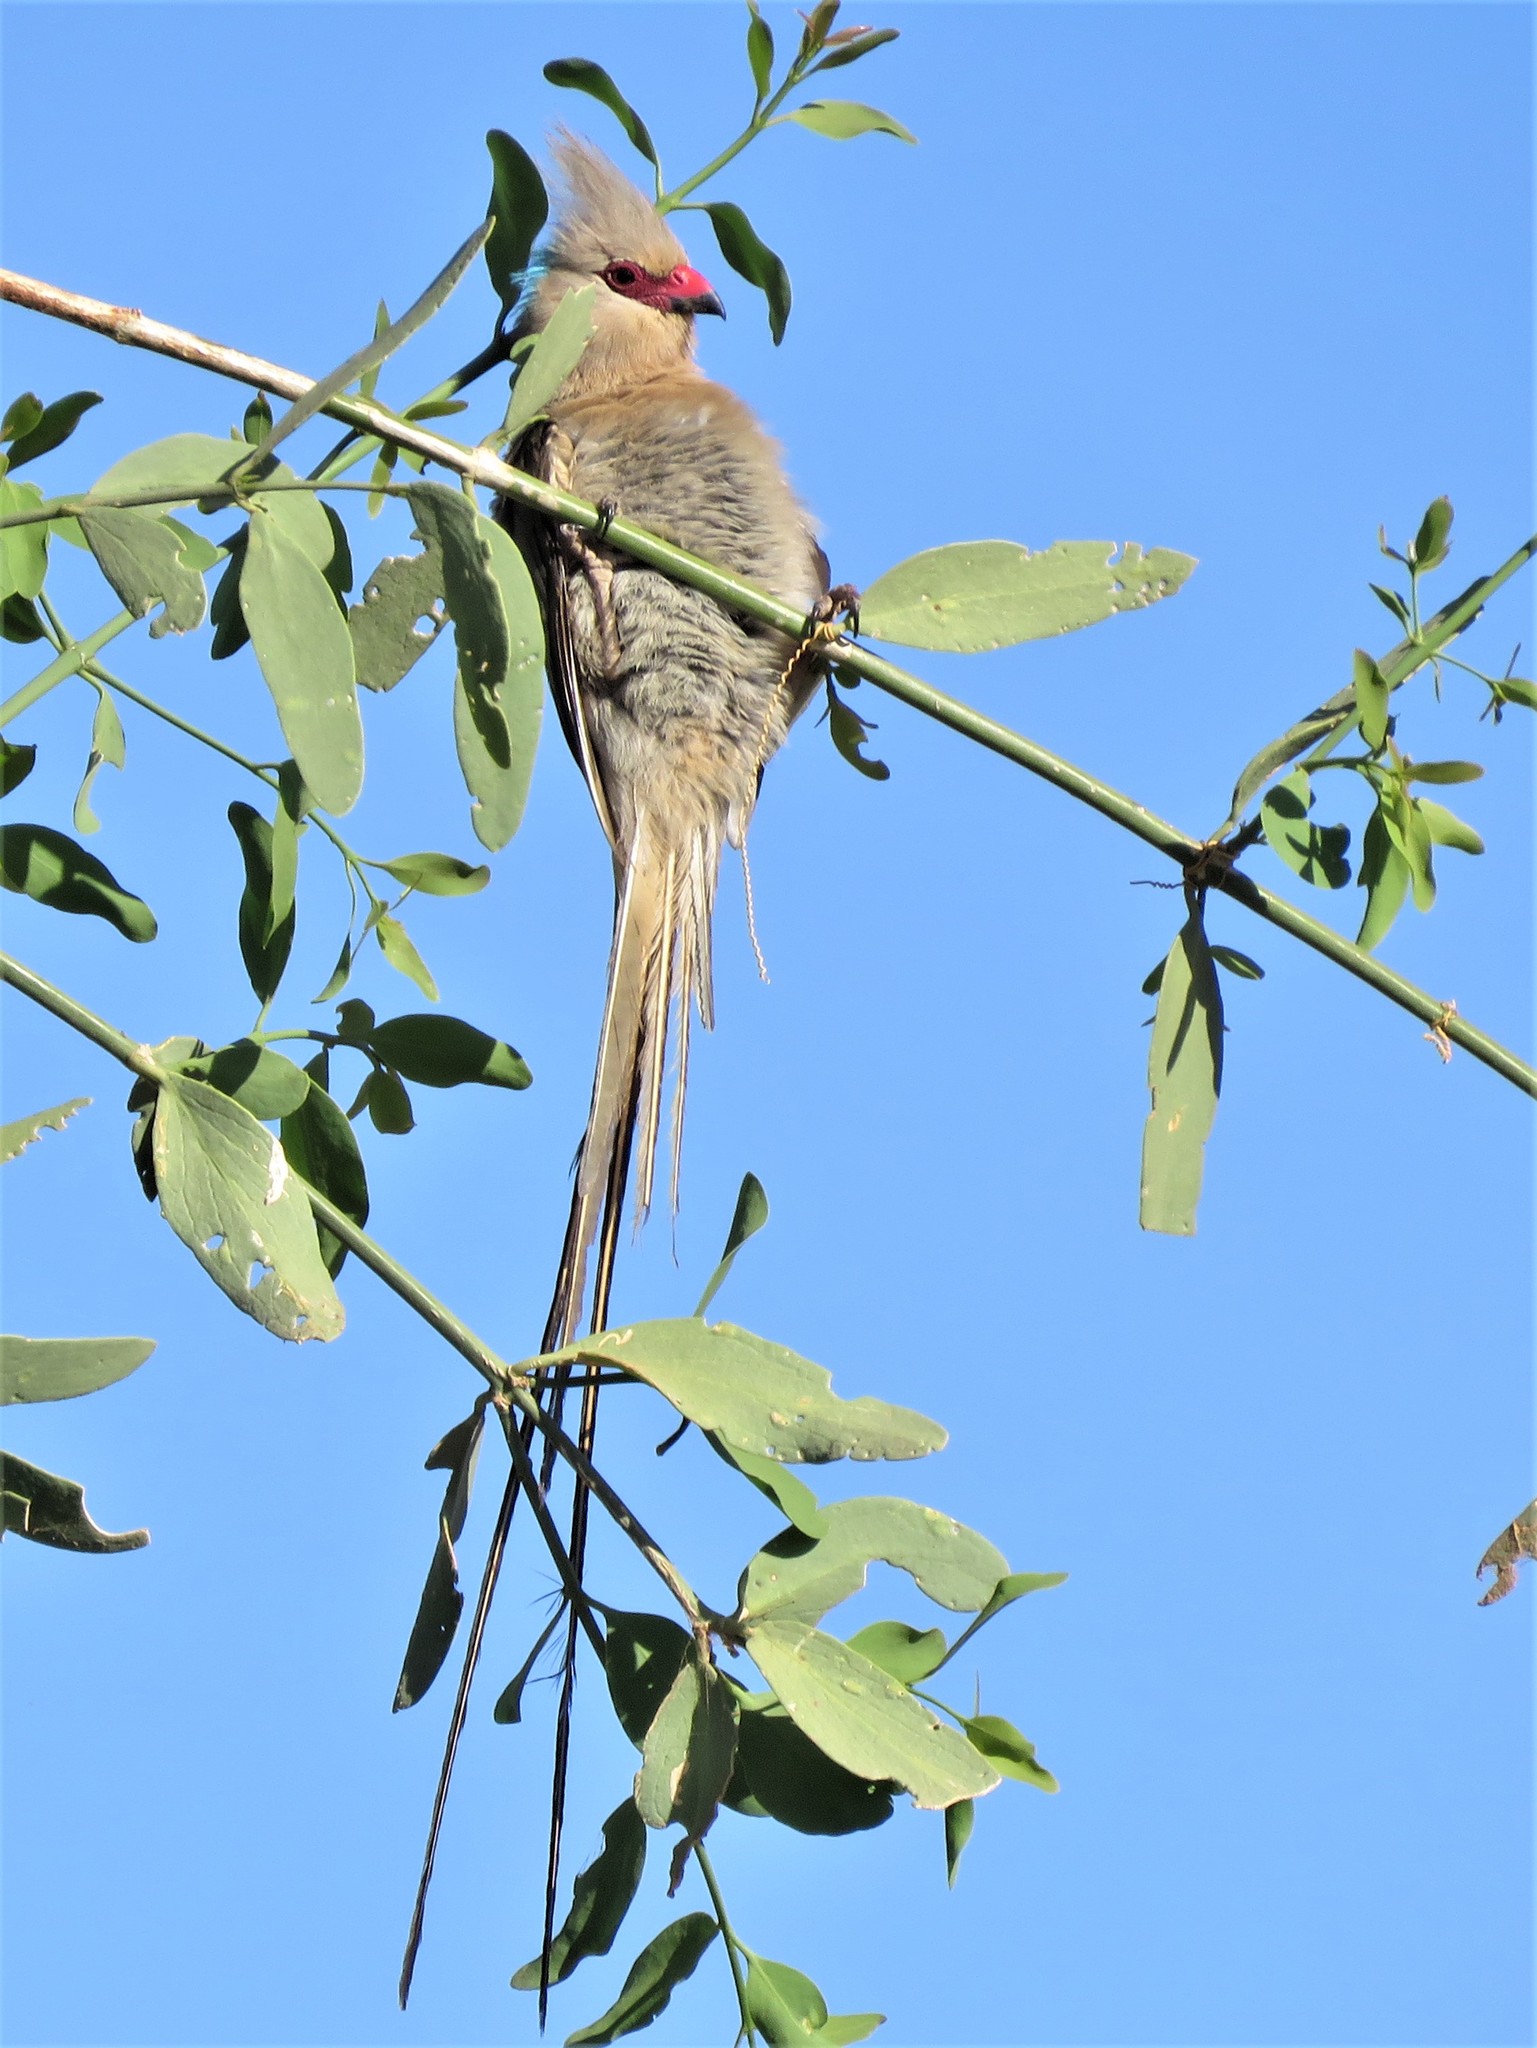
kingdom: Animalia
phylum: Chordata
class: Aves
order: Coliiformes
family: Coliidae
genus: Urocolius
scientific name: Urocolius macrourus
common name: Blue-naped mousebird
